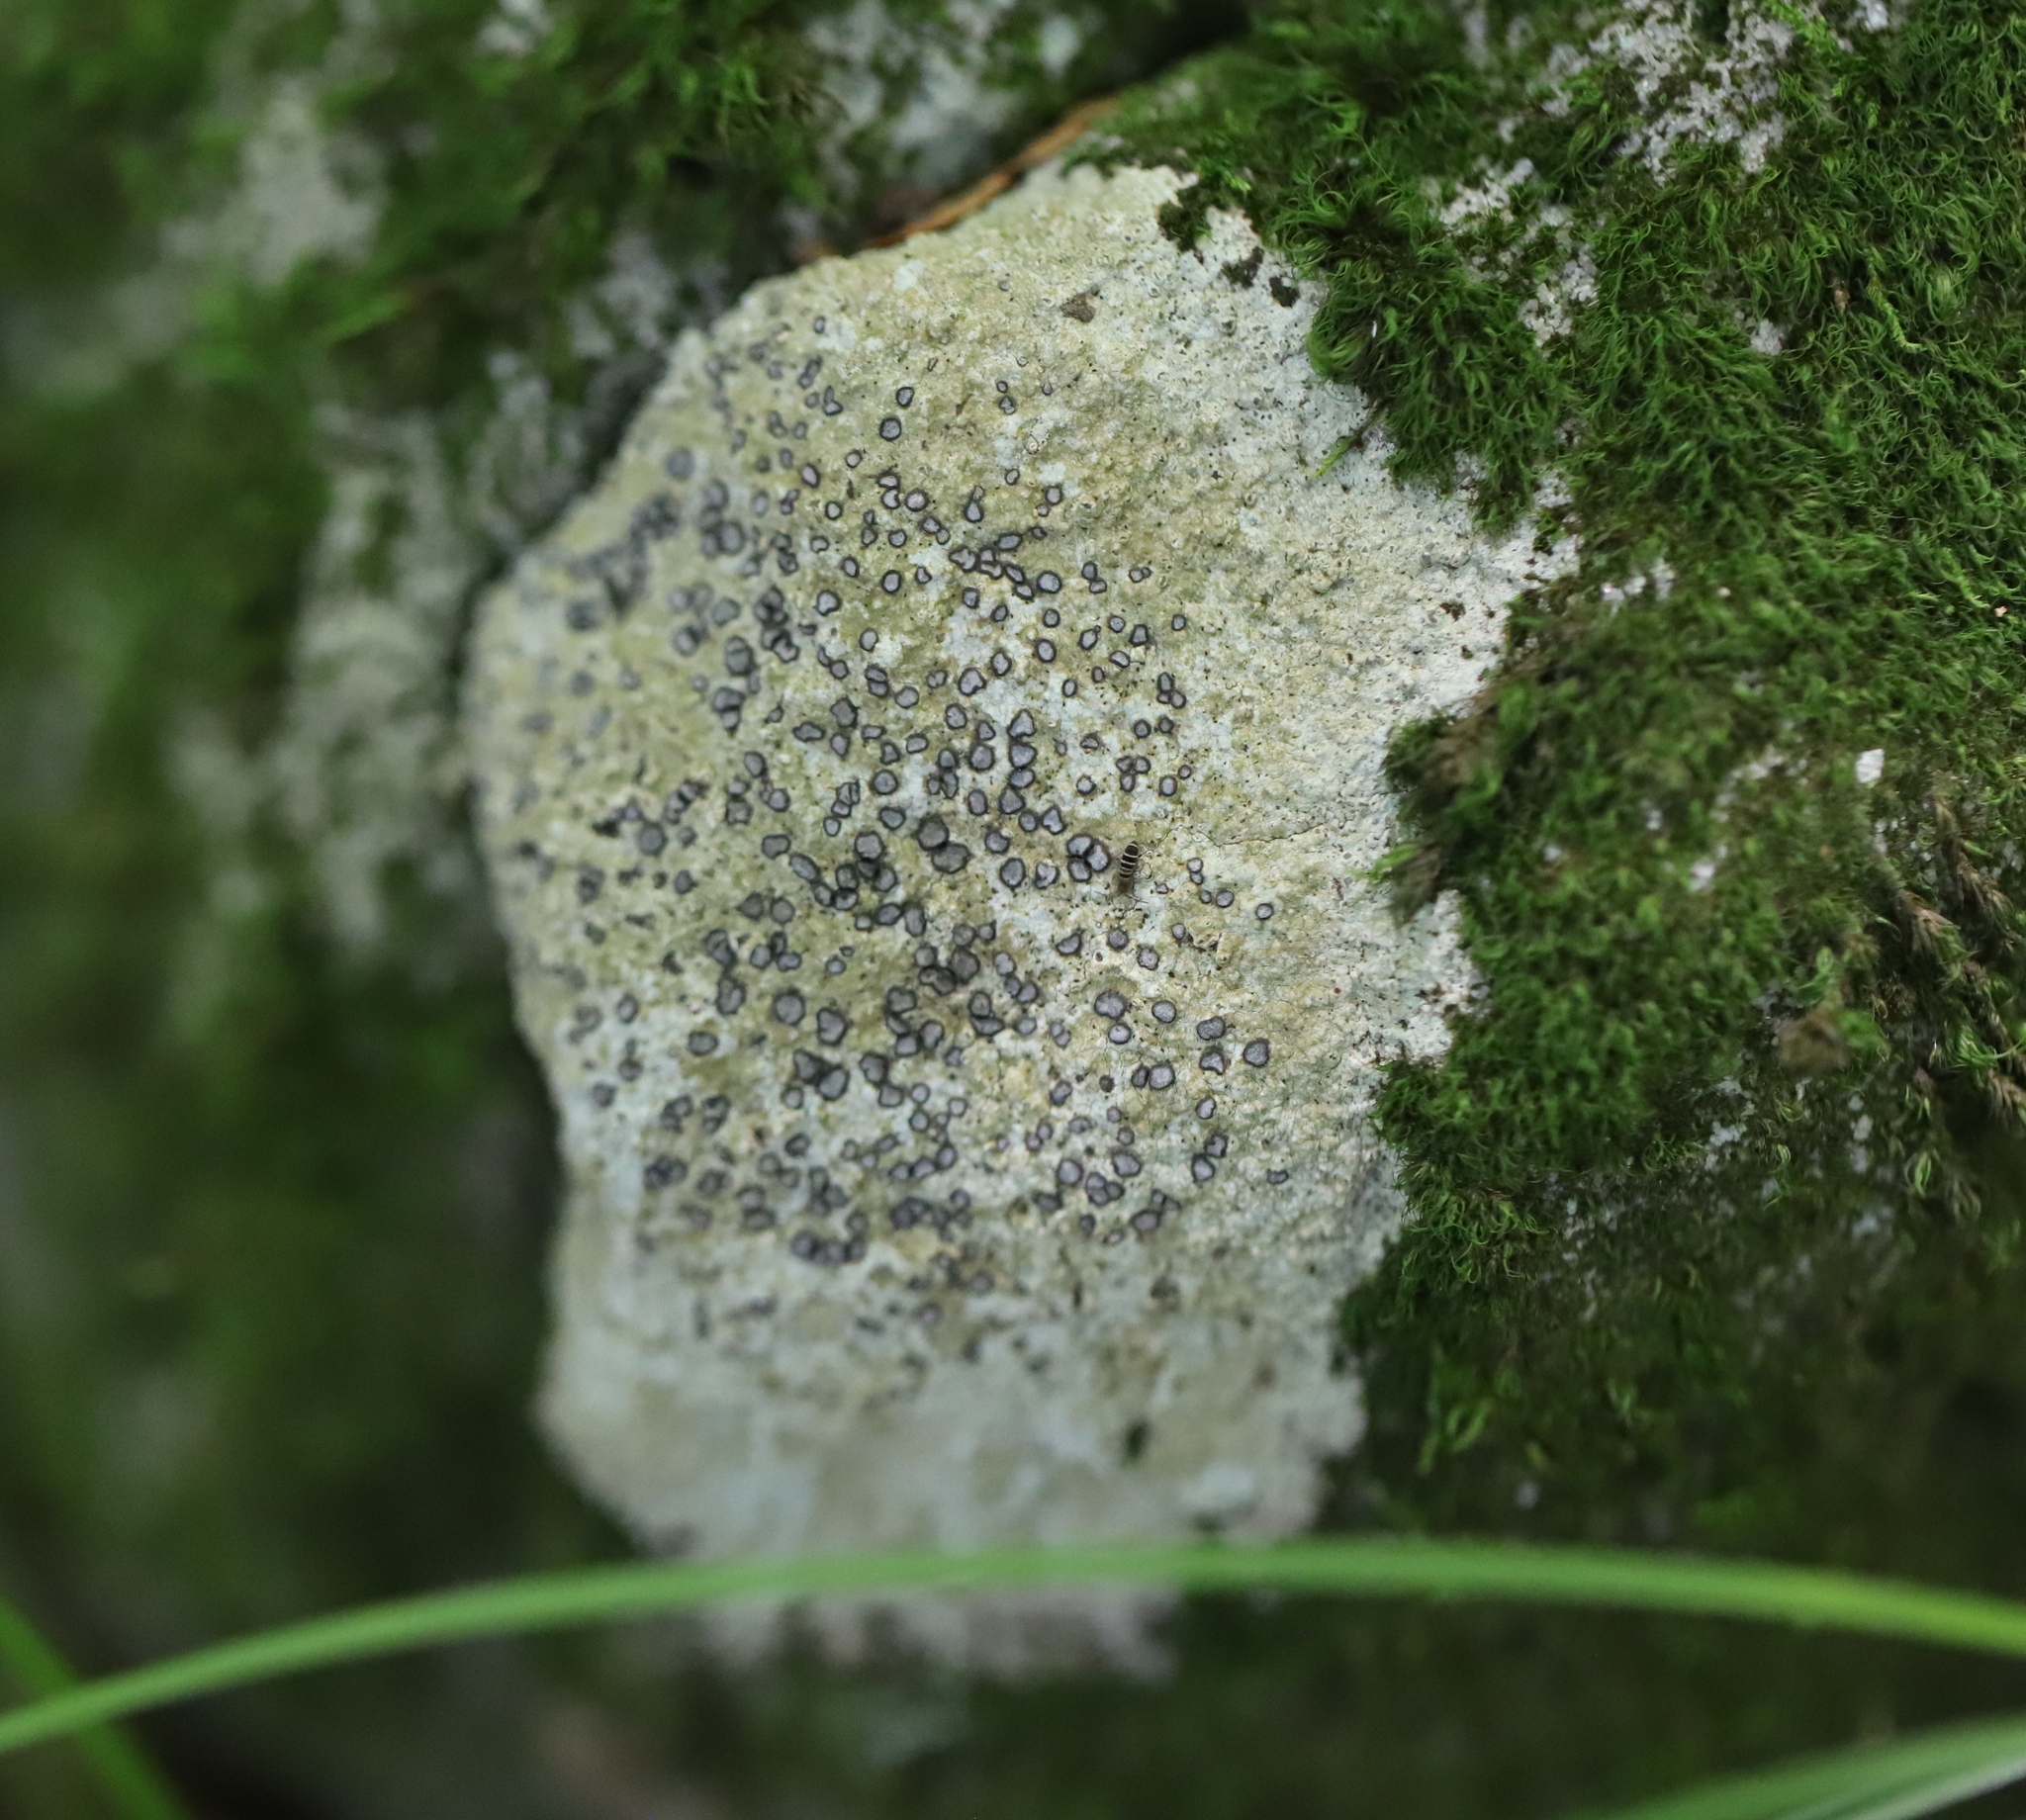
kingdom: Fungi
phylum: Ascomycota
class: Lecanoromycetes
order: Lecideales
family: Lecideaceae
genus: Porpidia
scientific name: Porpidia albocaerulescens
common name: Smokey-eyed boulder lichen
